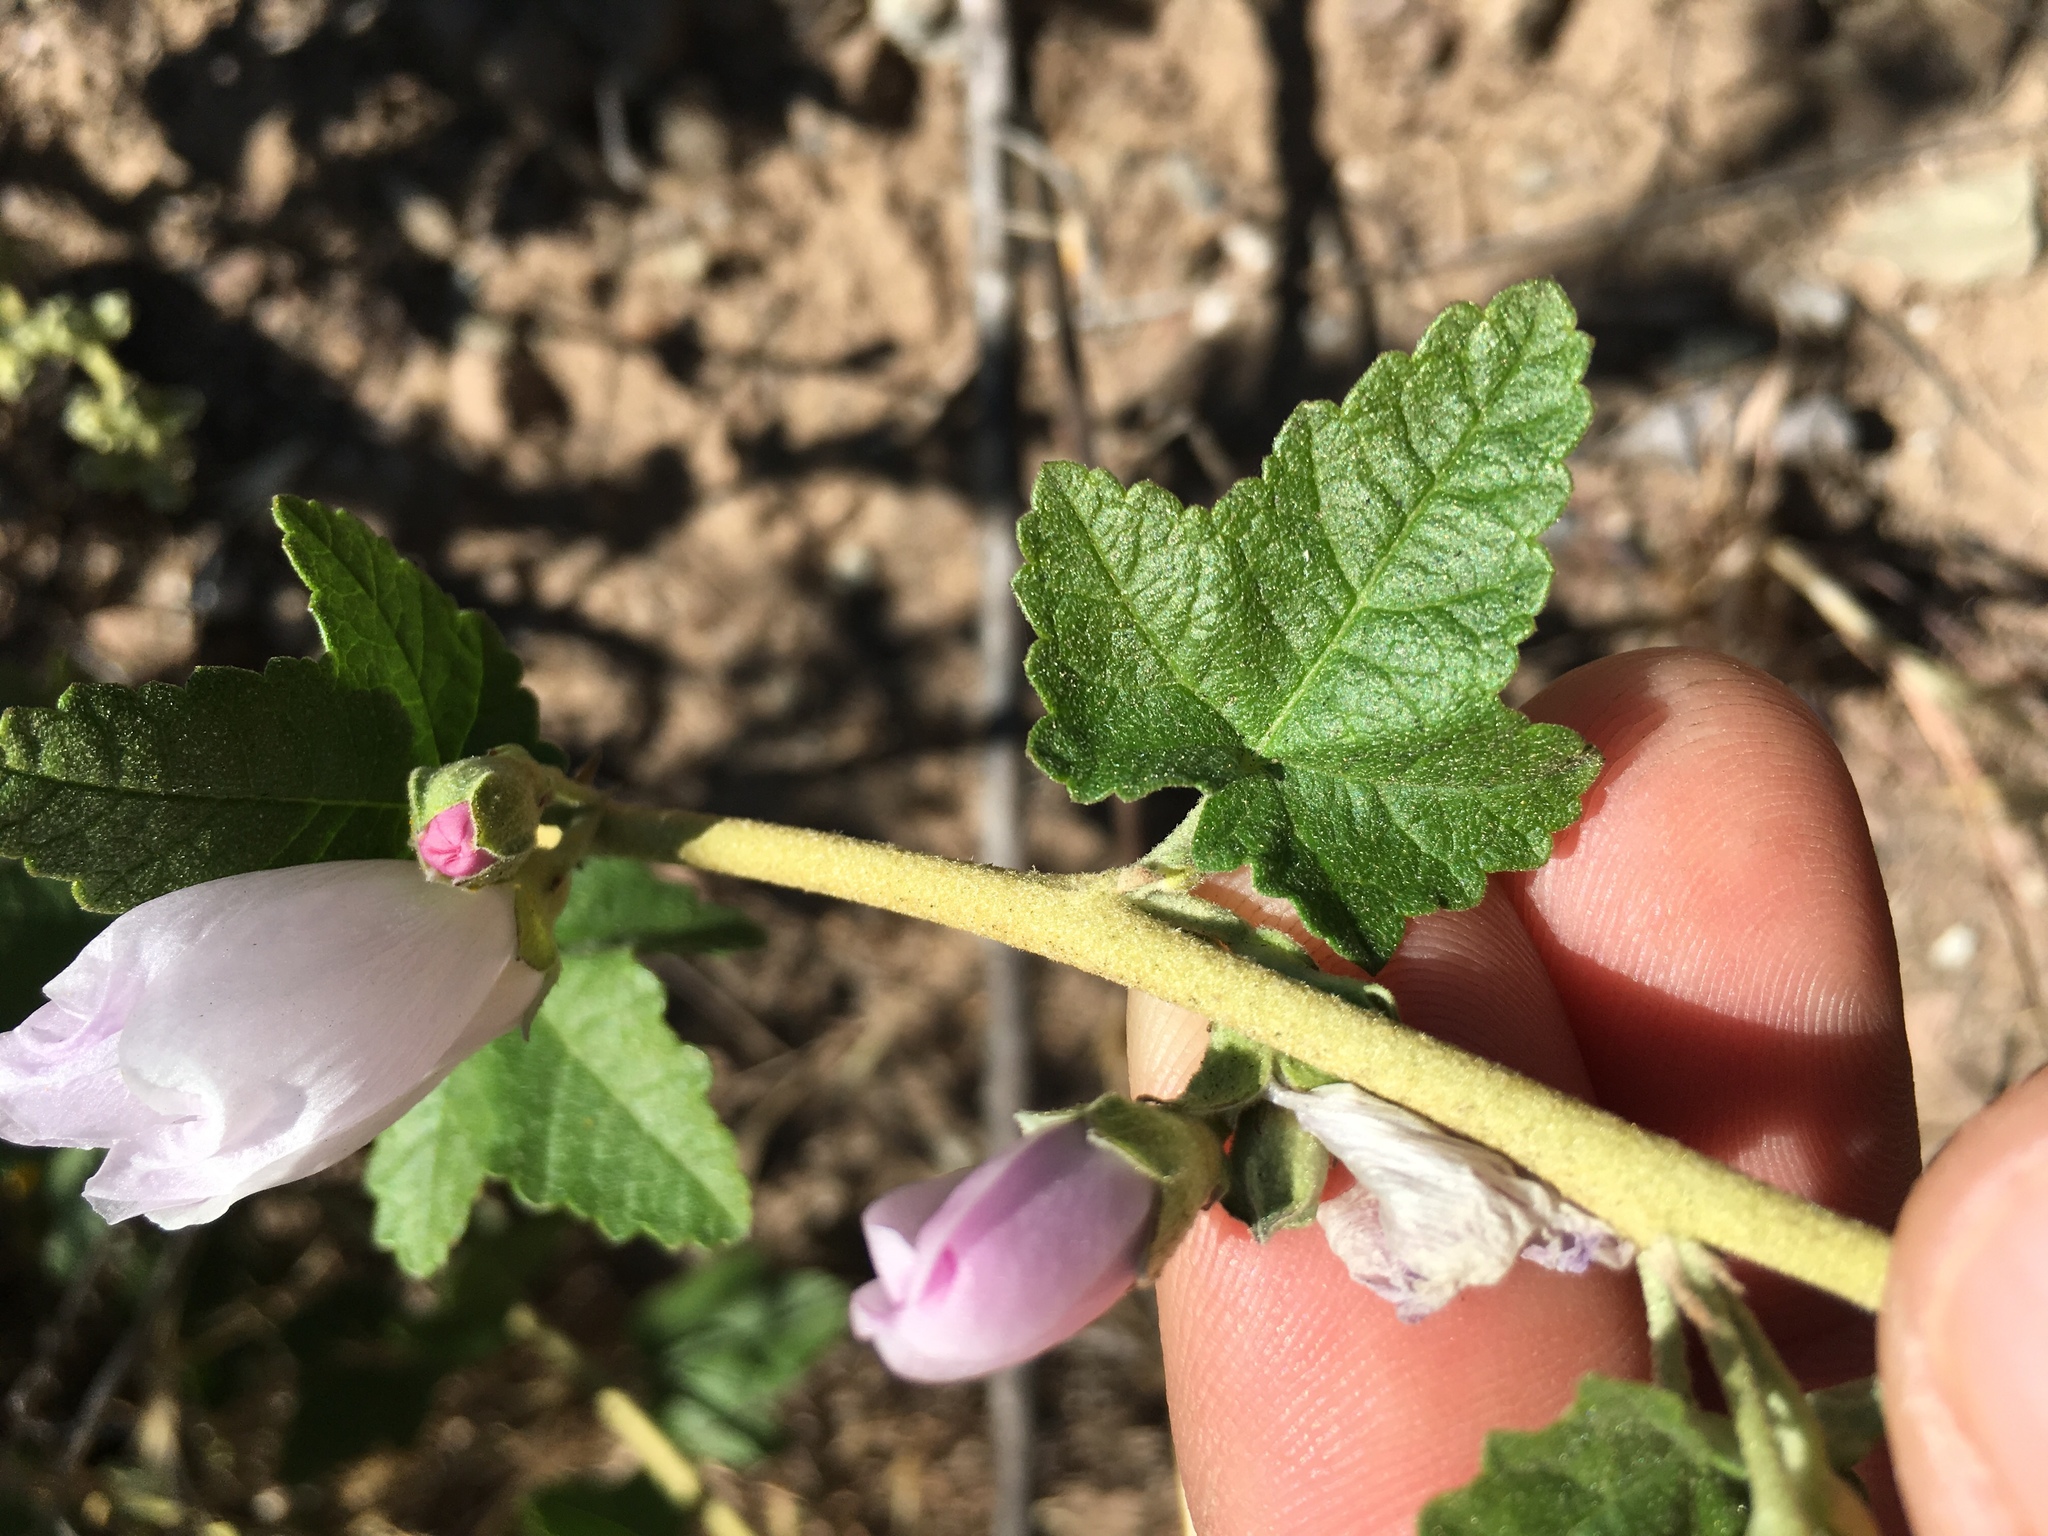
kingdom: Plantae
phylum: Tracheophyta
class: Magnoliopsida
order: Malvales
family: Malvaceae
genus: Malacothamnus
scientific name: Malacothamnus fasciculatus
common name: Sant cruz island bush-mallow
